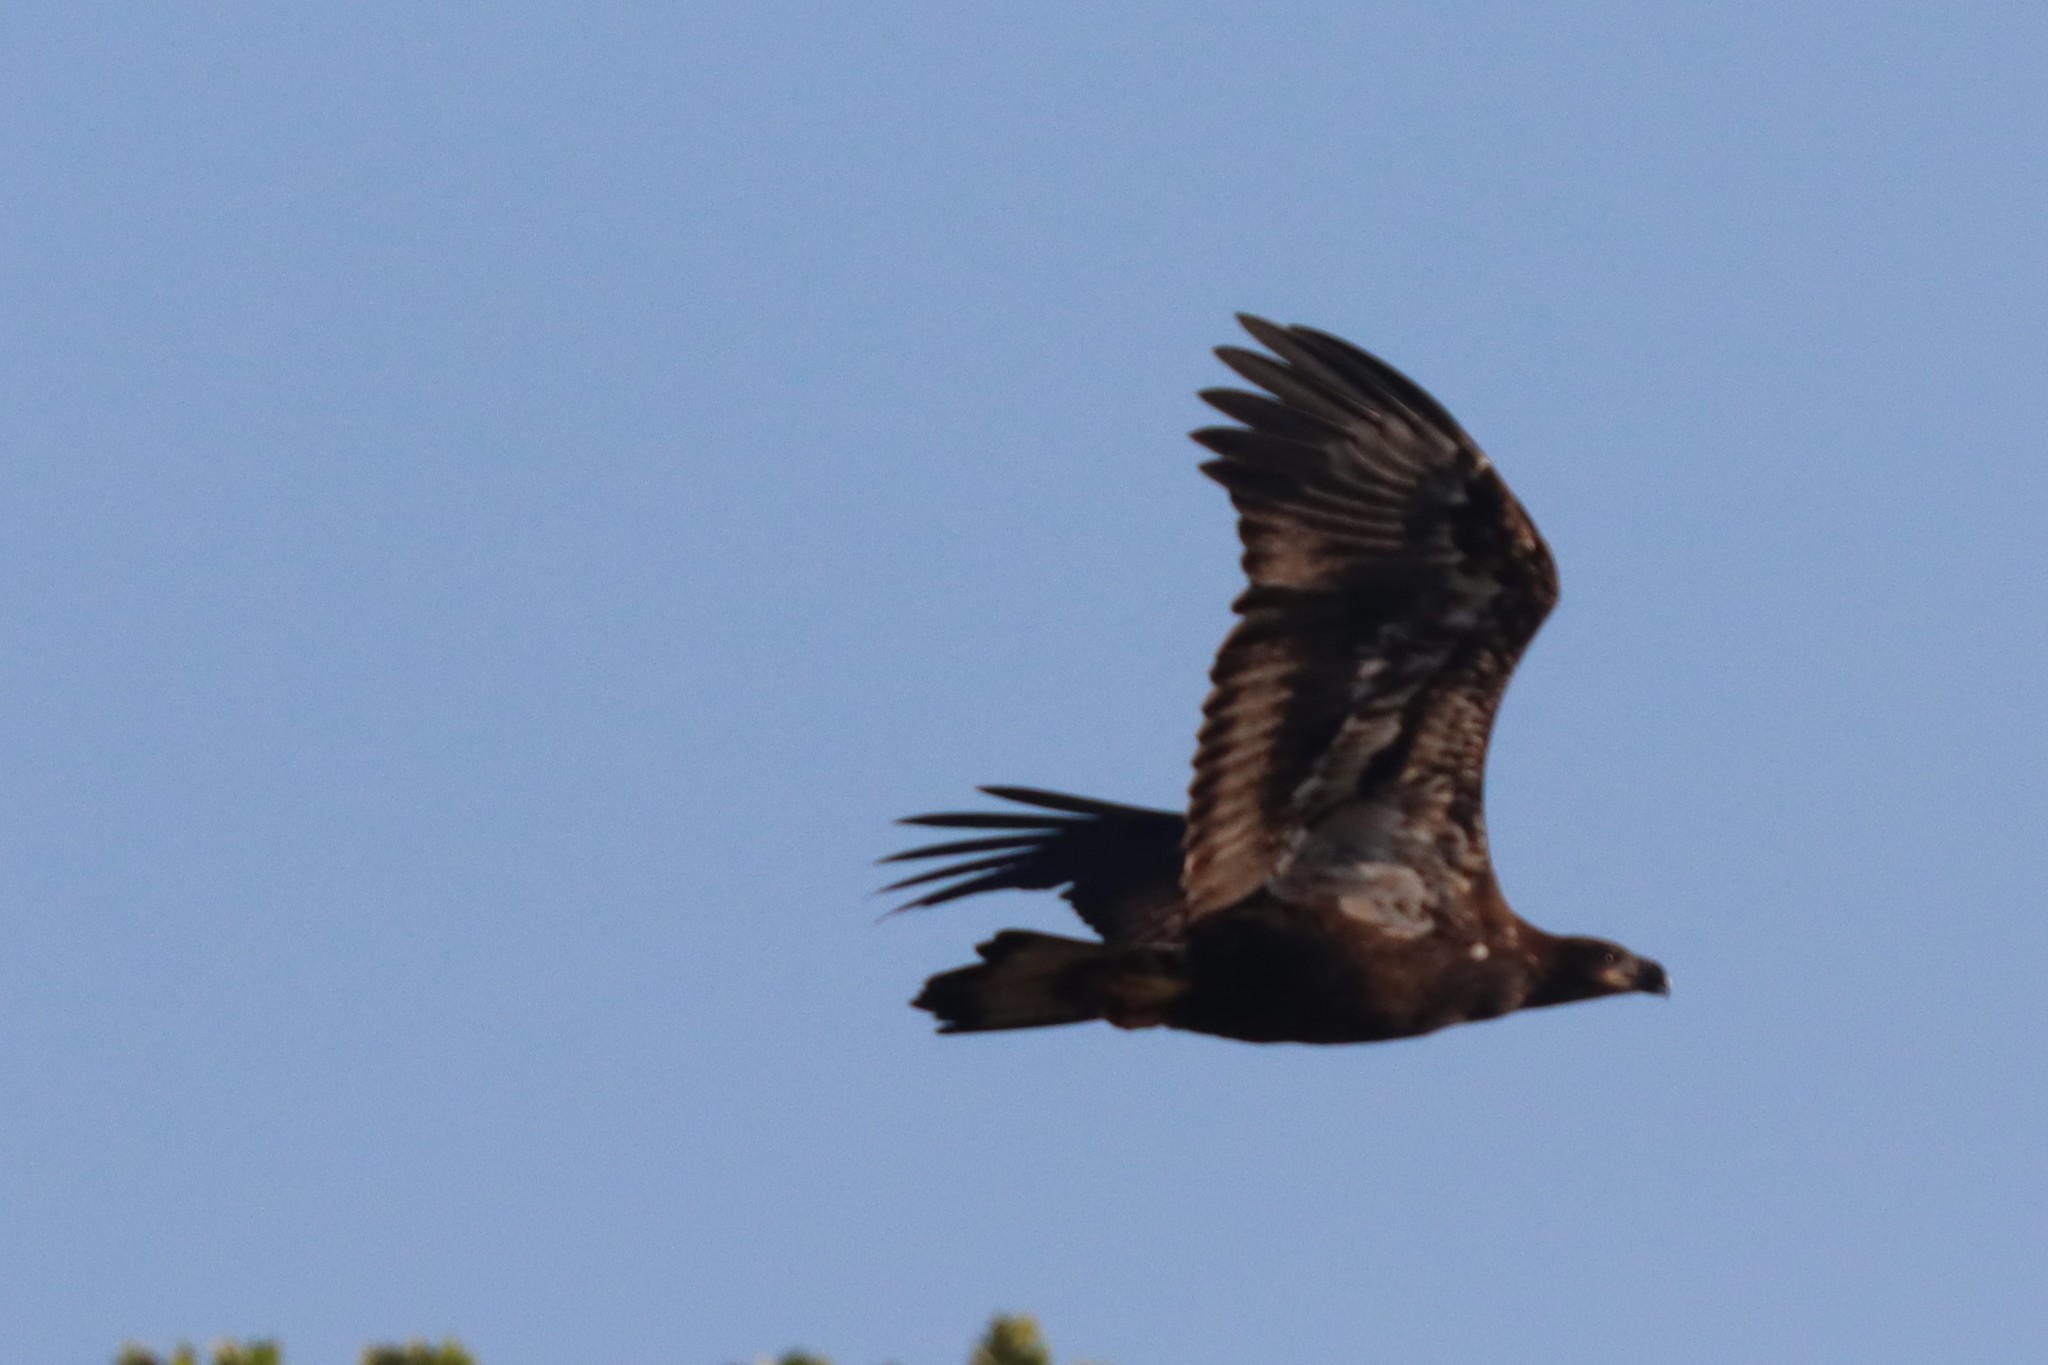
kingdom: Animalia
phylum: Chordata
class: Aves
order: Accipitriformes
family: Accipitridae
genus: Haliaeetus
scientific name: Haliaeetus leucocephalus
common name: Bald eagle
